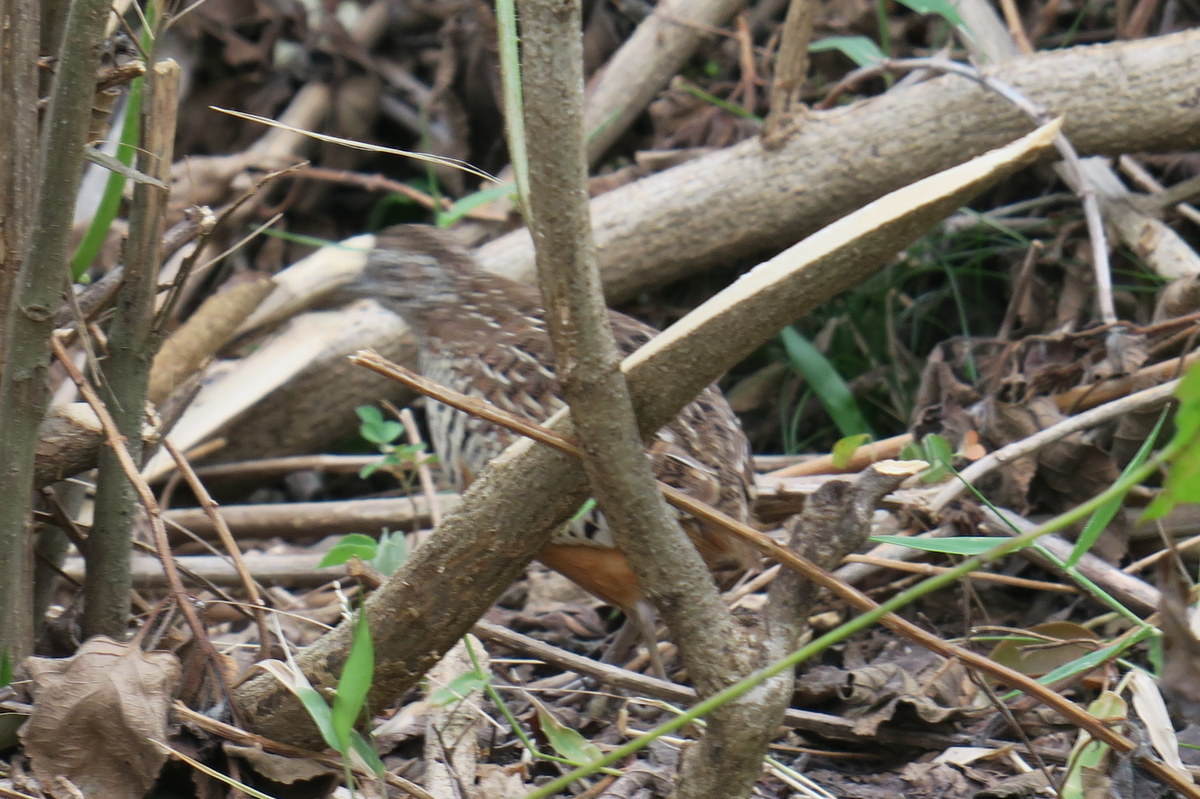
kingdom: Animalia
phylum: Chordata
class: Aves
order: Charadriiformes
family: Turnicidae
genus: Turnix
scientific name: Turnix suscitator
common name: Barred buttonquail
